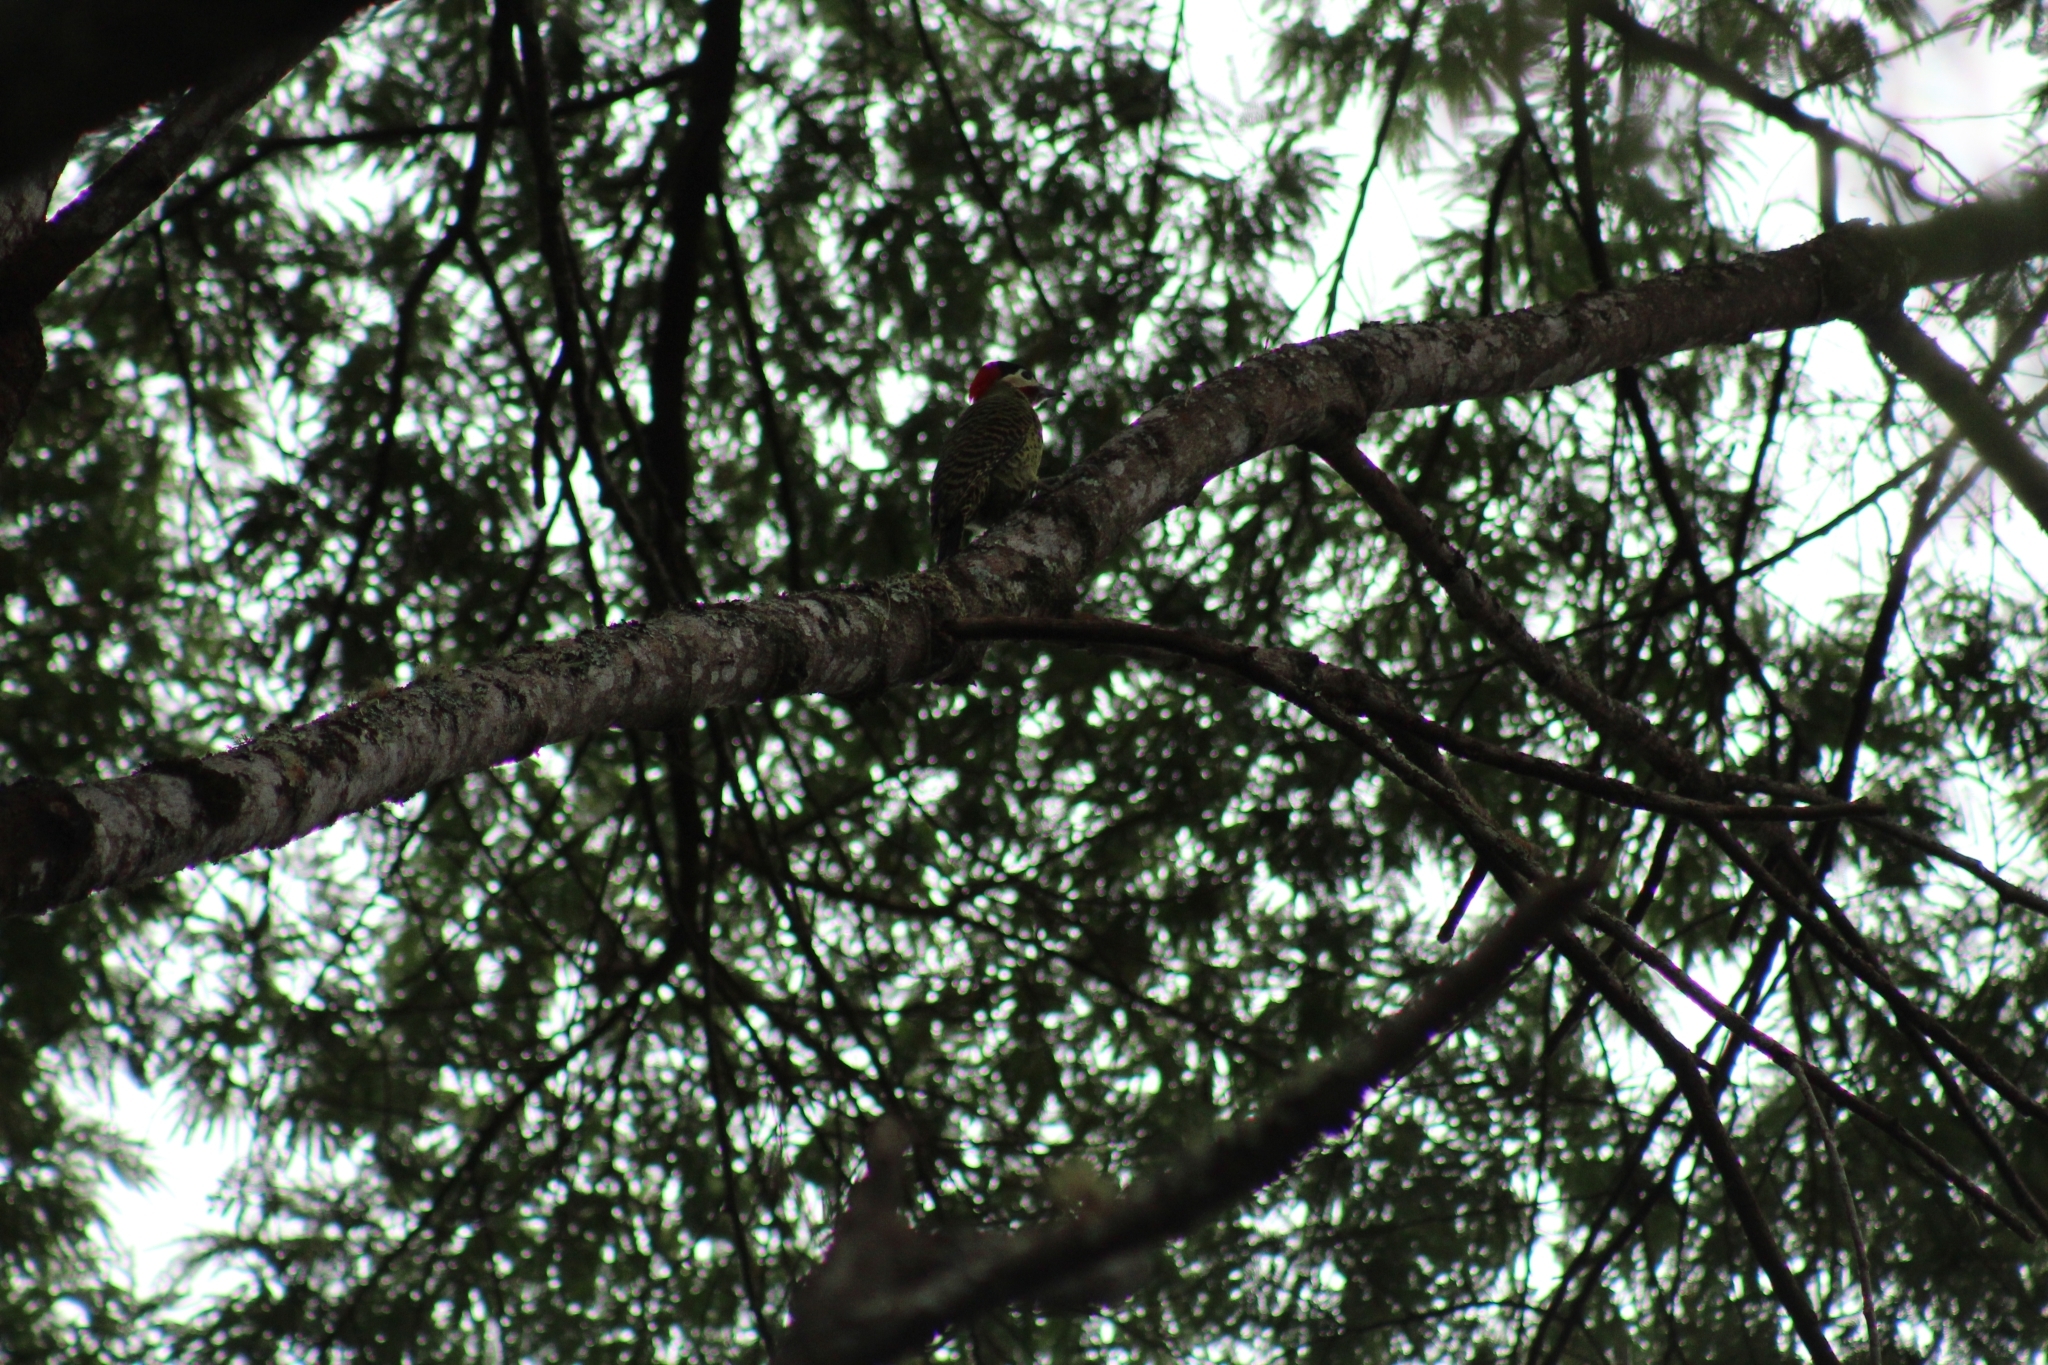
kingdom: Animalia
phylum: Chordata
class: Aves
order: Piciformes
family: Picidae
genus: Colaptes
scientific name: Colaptes melanochloros
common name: Green-barred woodpecker
